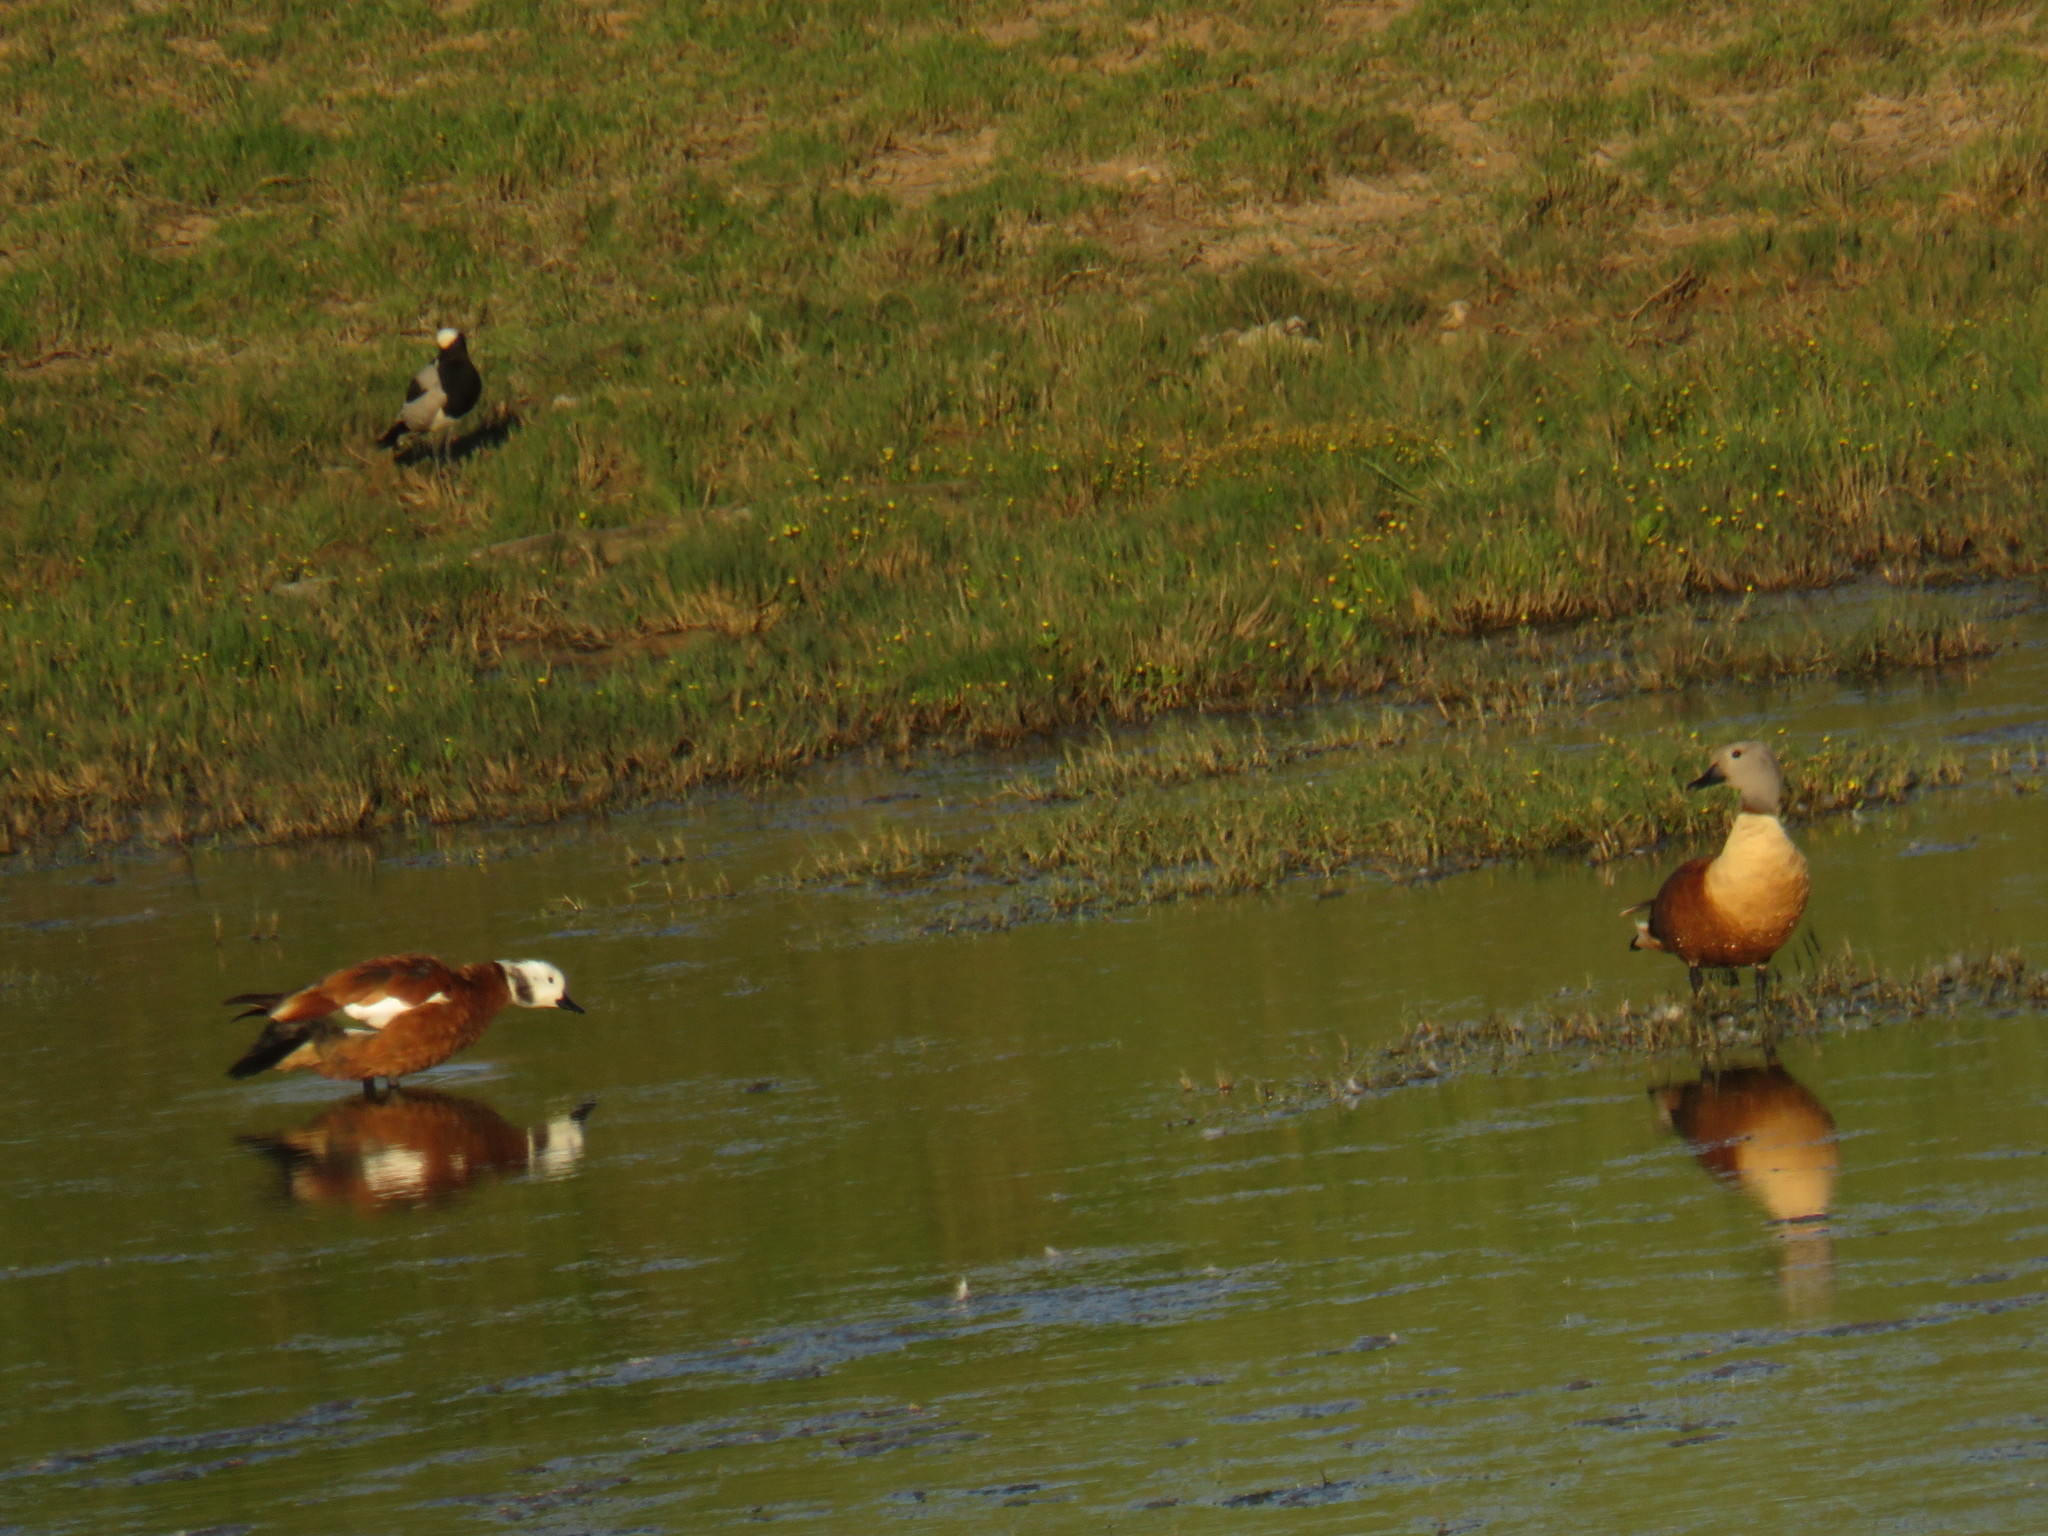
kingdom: Animalia
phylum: Chordata
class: Aves
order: Anseriformes
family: Anatidae
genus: Tadorna
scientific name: Tadorna cana
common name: South african shelduck
